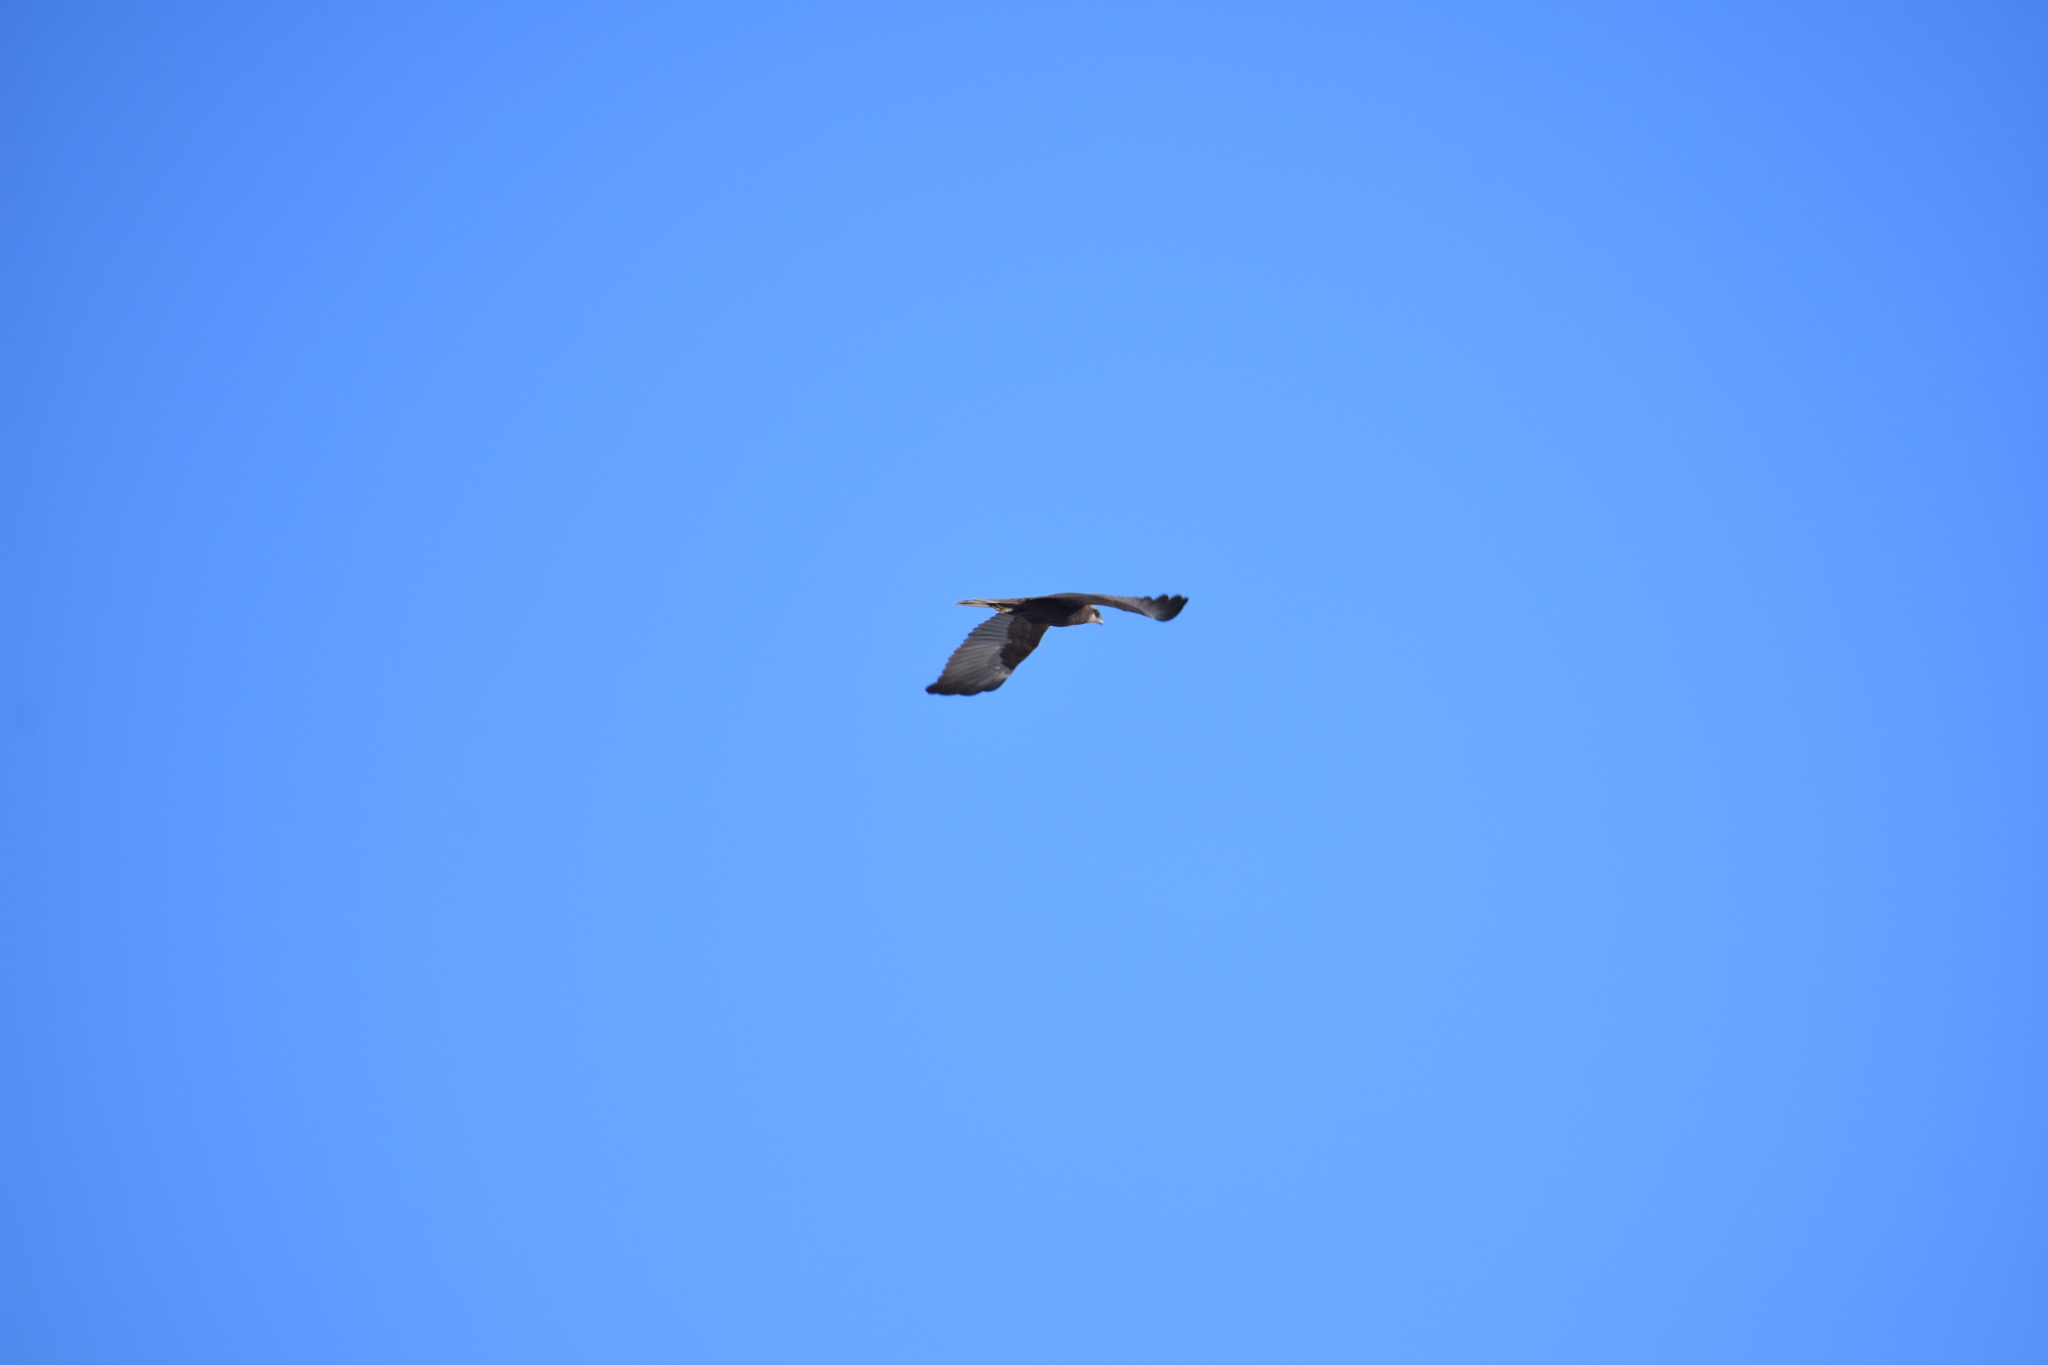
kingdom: Animalia
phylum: Chordata
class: Aves
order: Accipitriformes
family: Accipitridae
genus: Circus
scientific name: Circus aeruginosus
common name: Western marsh harrier
